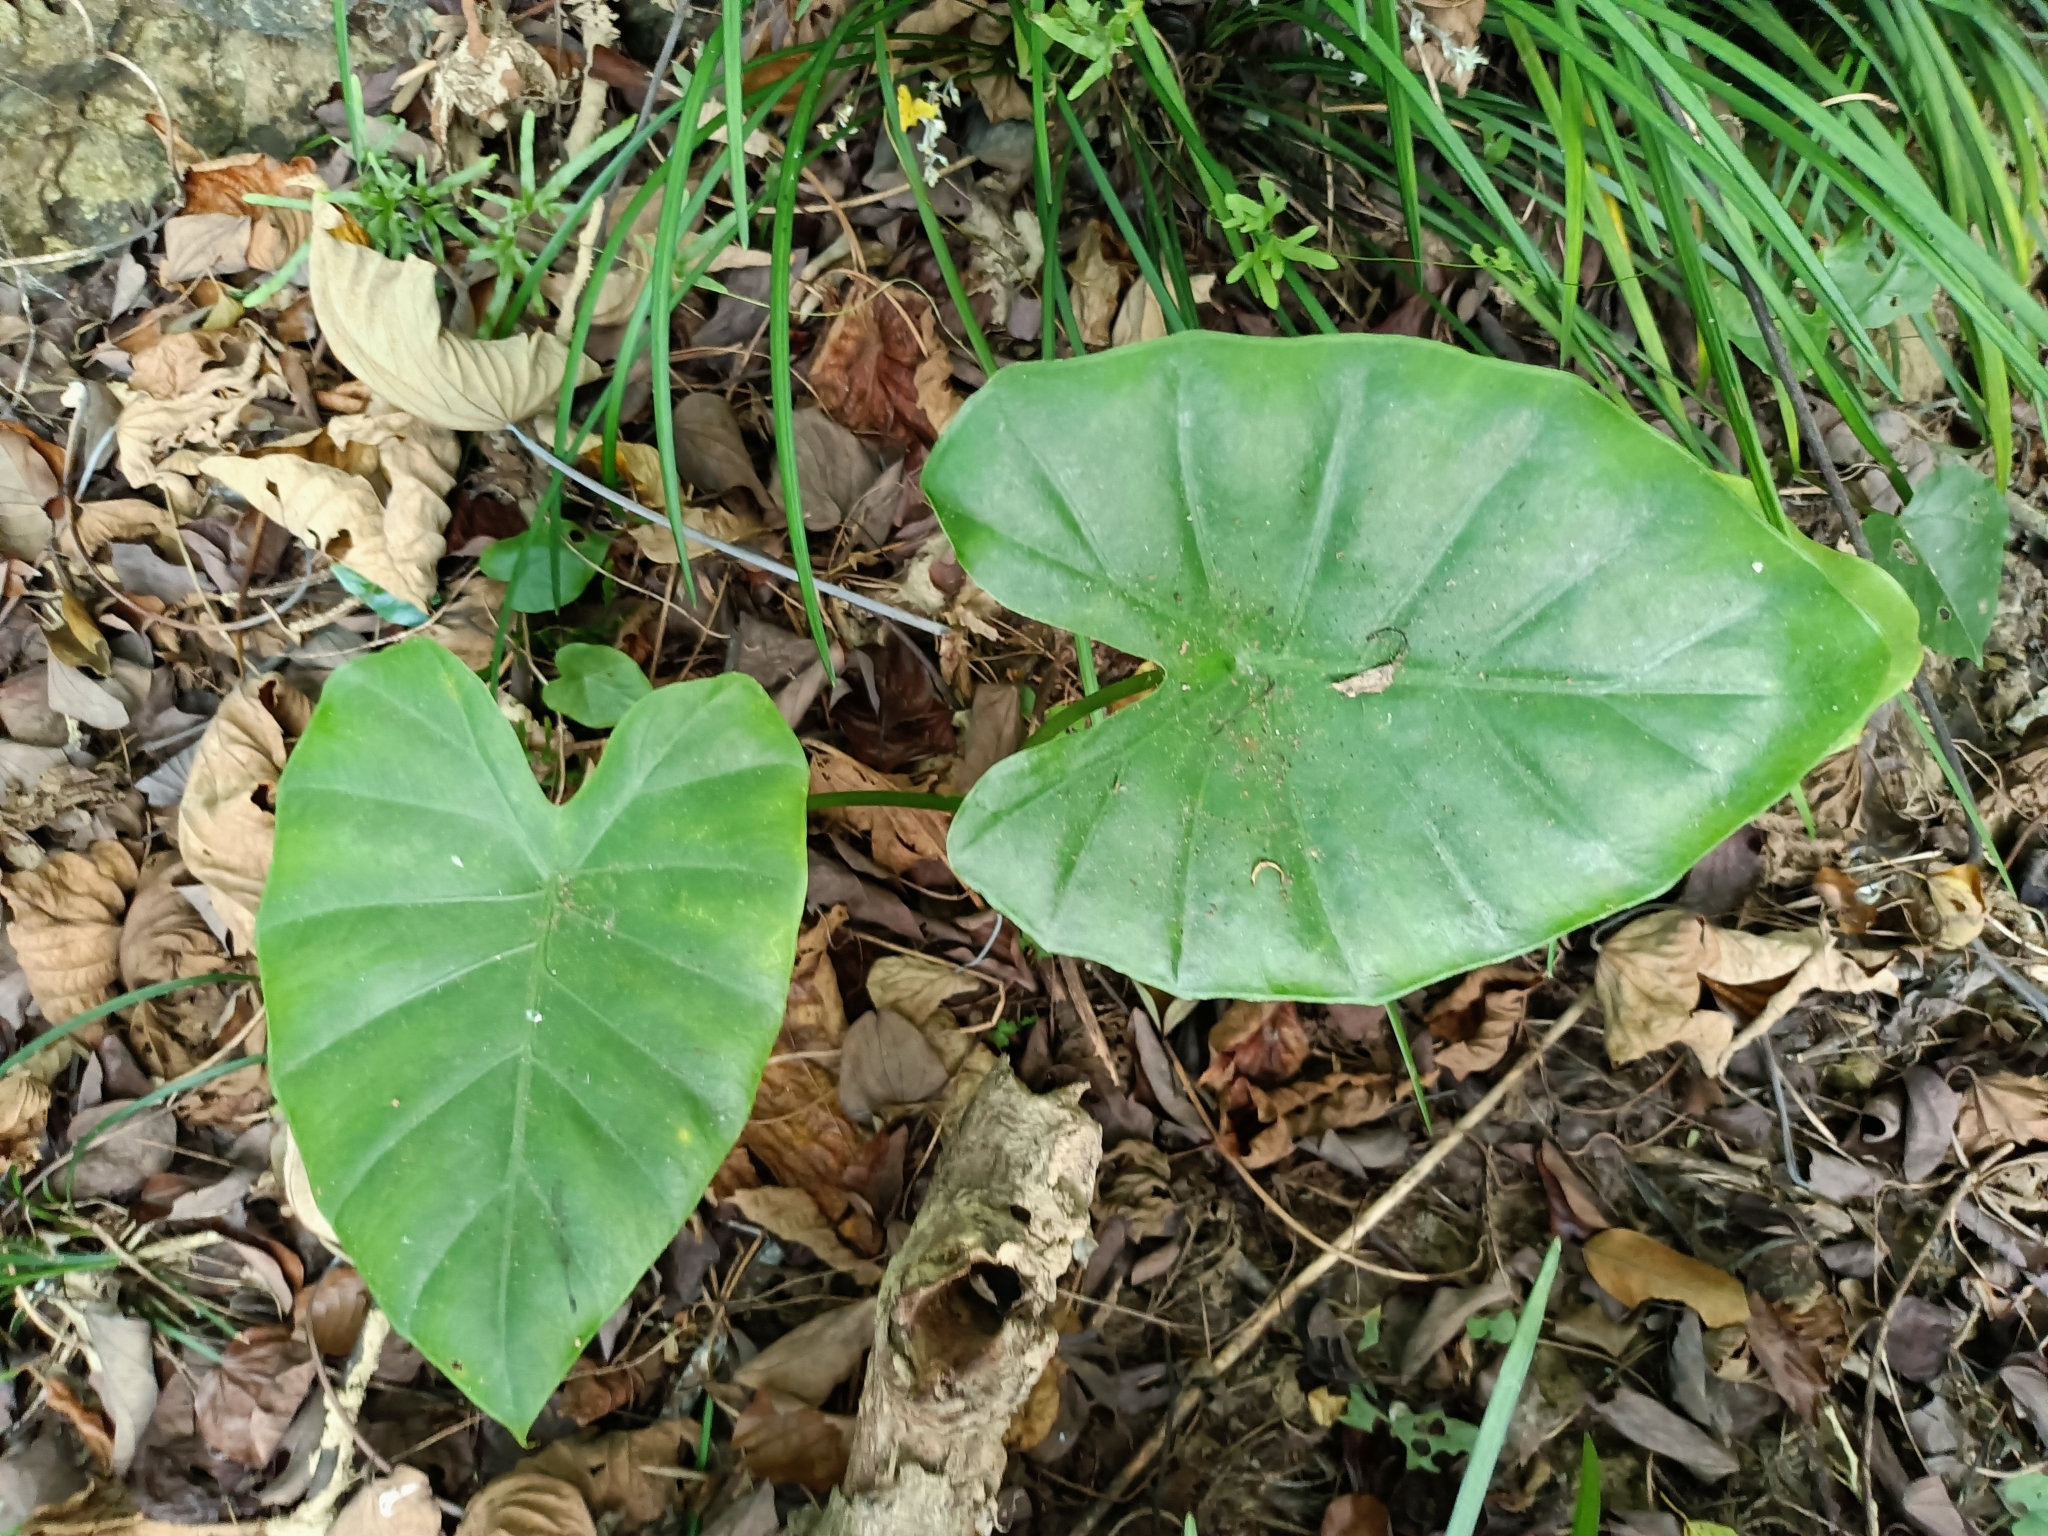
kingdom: Plantae
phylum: Tracheophyta
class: Liliopsida
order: Alismatales
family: Araceae
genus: Alocasia
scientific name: Alocasia odora
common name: Asian taro
